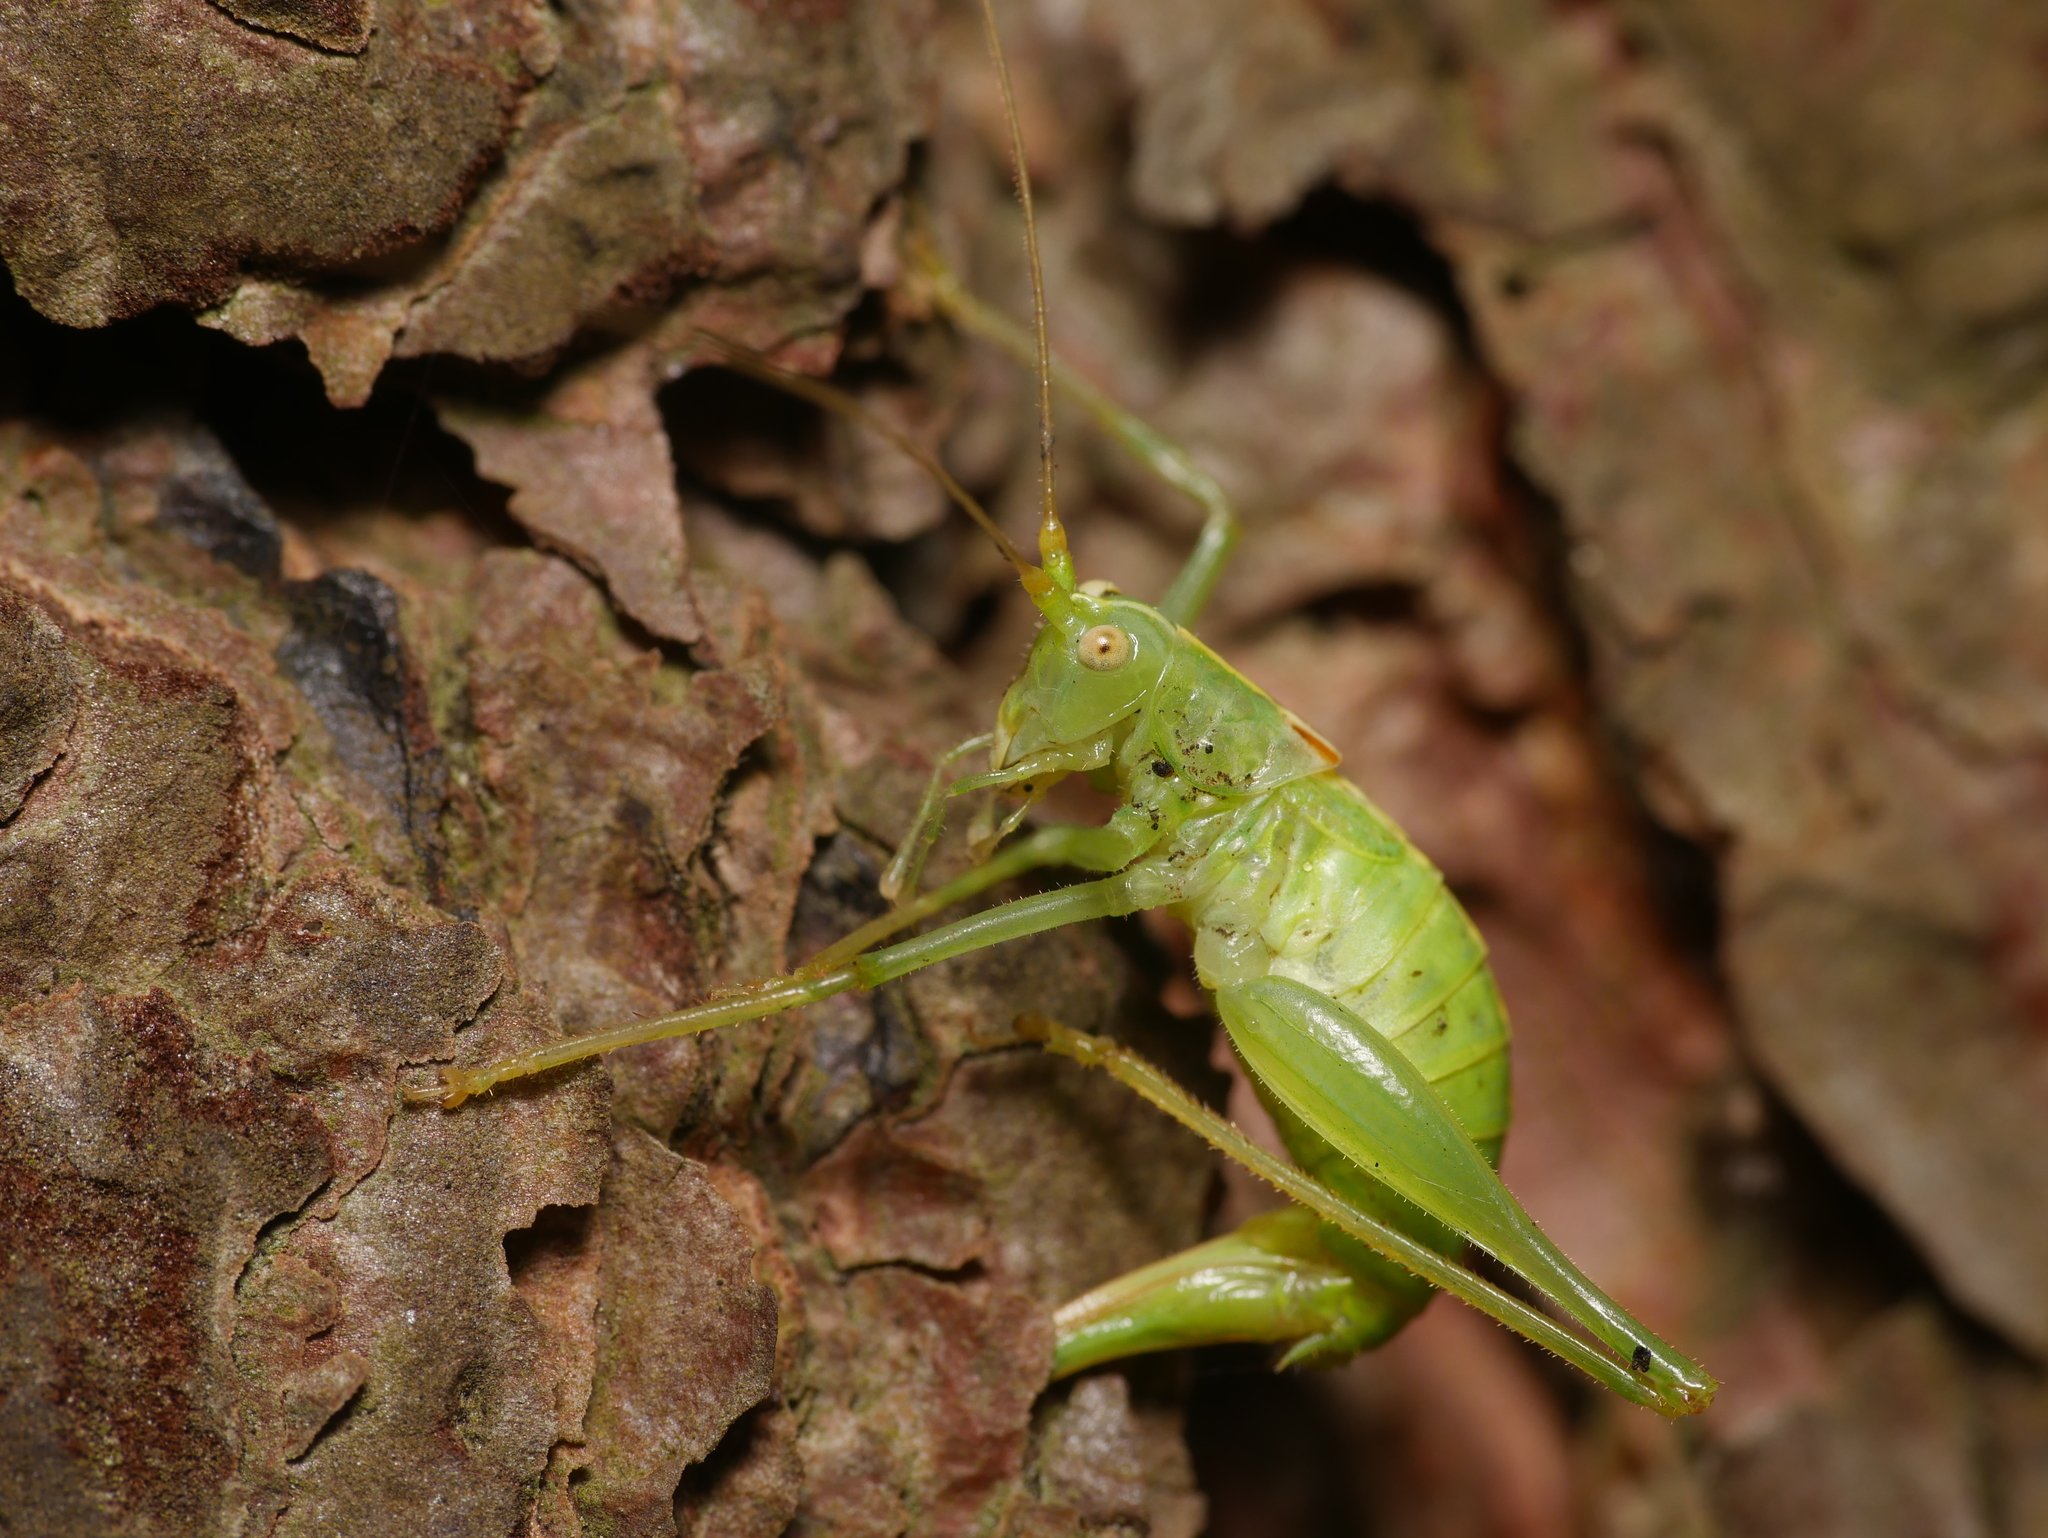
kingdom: Animalia
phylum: Arthropoda
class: Insecta
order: Orthoptera
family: Tettigoniidae
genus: Meconema
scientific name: Meconema meridionale
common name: Southern oak bush-cricket
